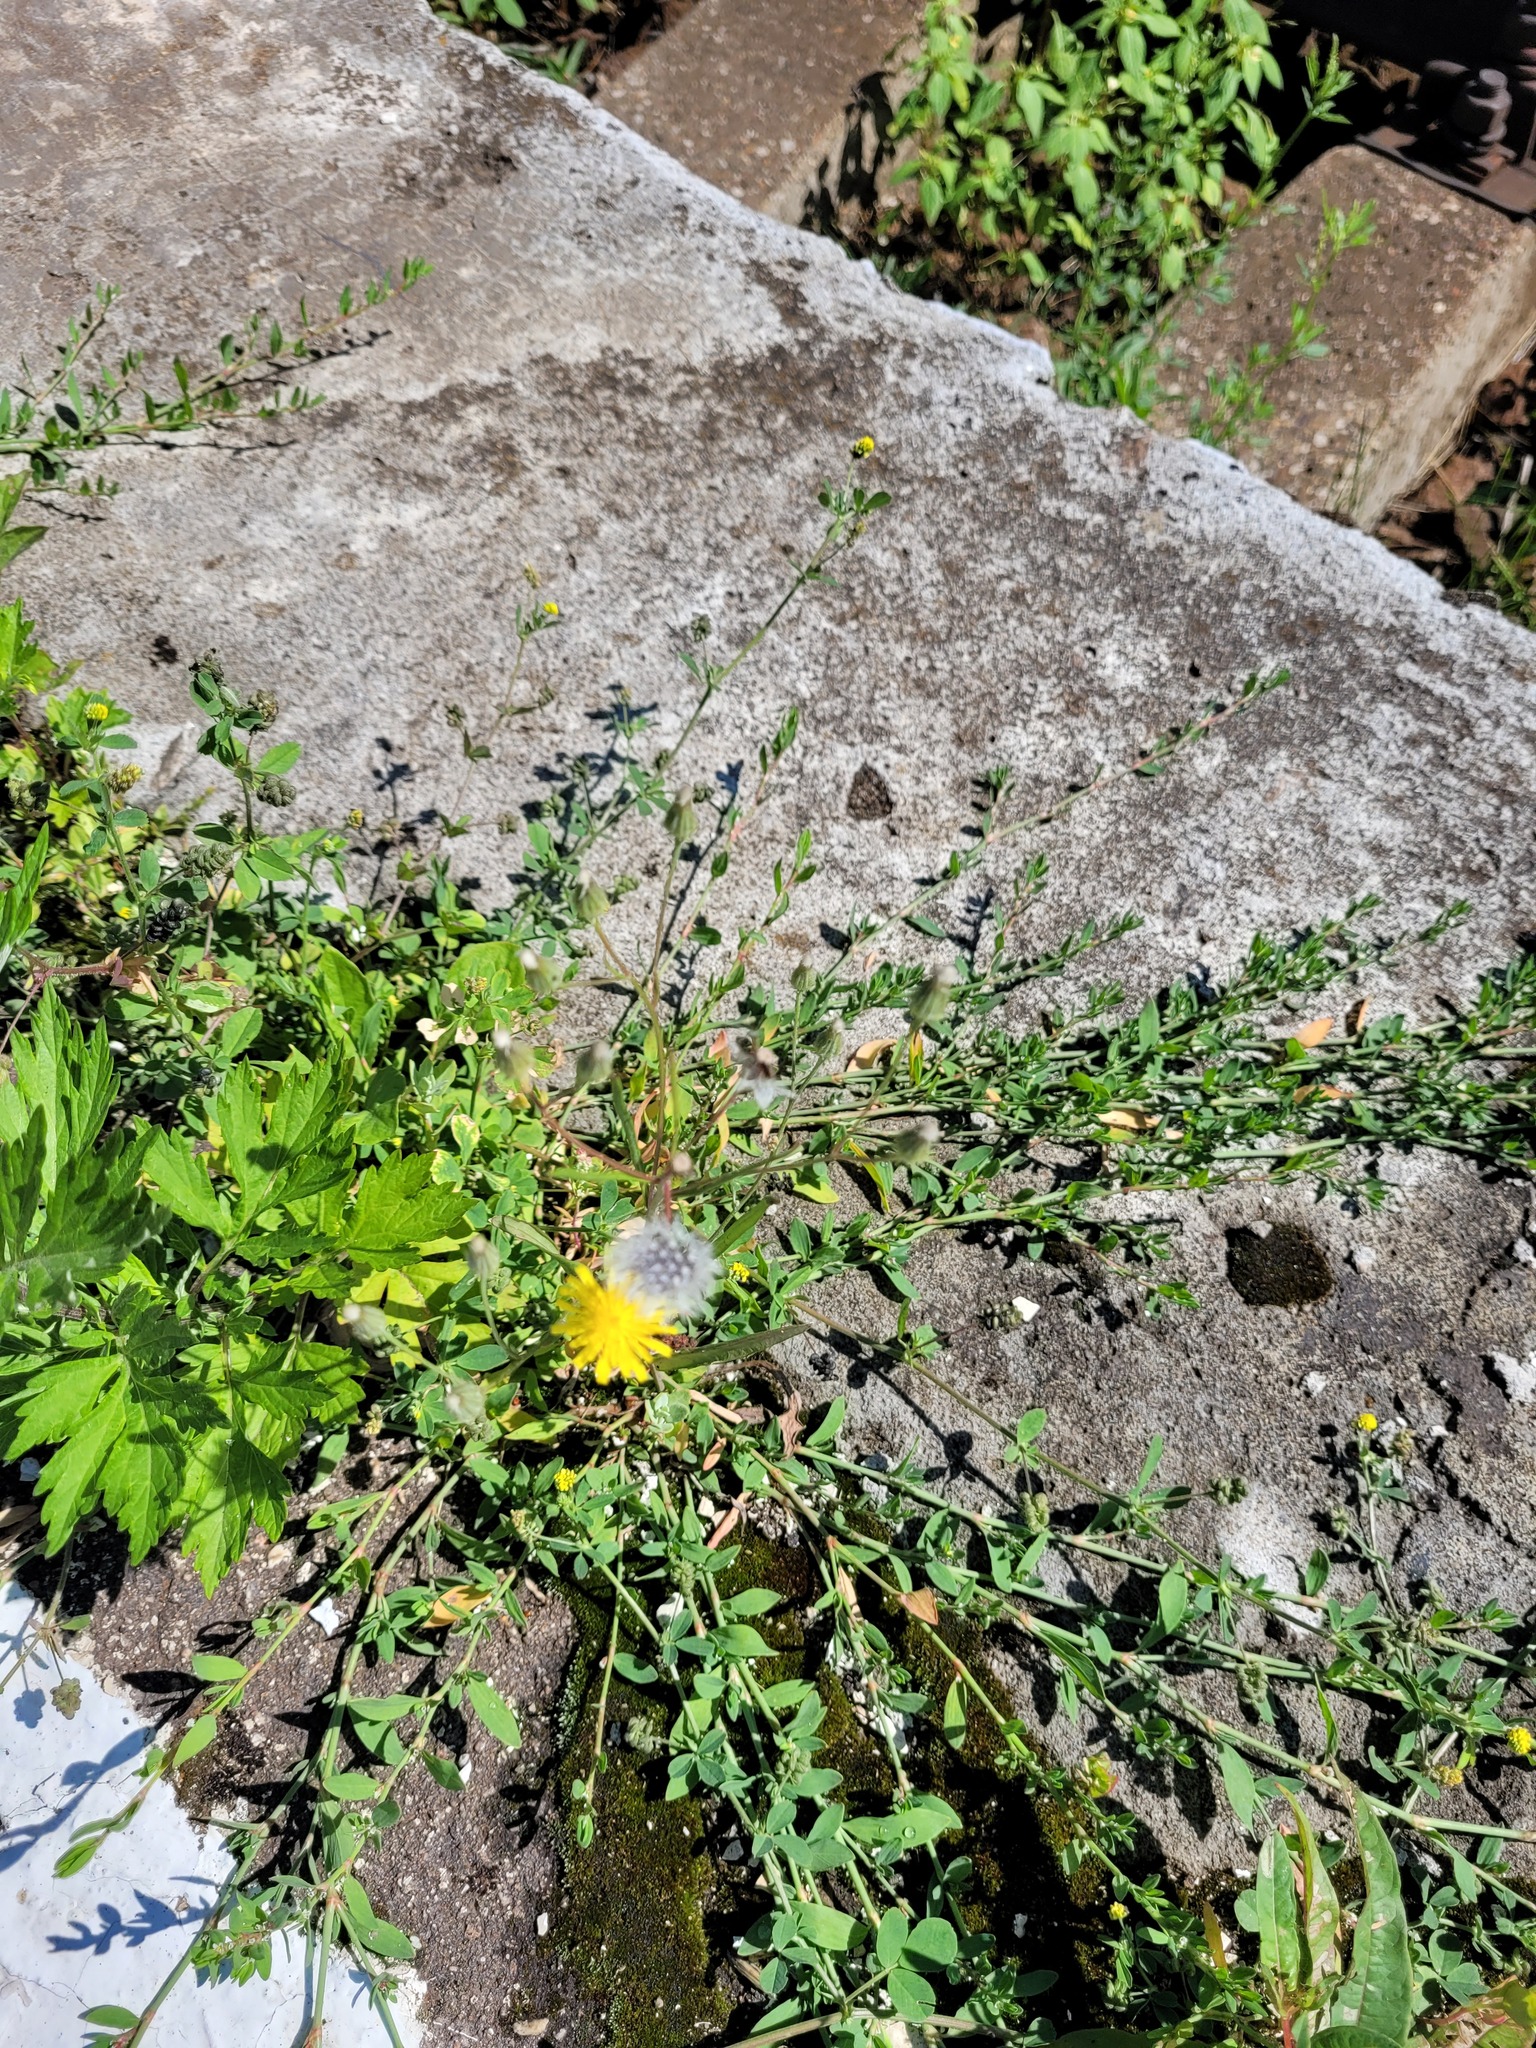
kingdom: Plantae
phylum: Tracheophyta
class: Magnoliopsida
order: Asterales
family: Asteraceae
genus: Crepis
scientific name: Crepis tectorum
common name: Narrow-leaved hawk's-beard
